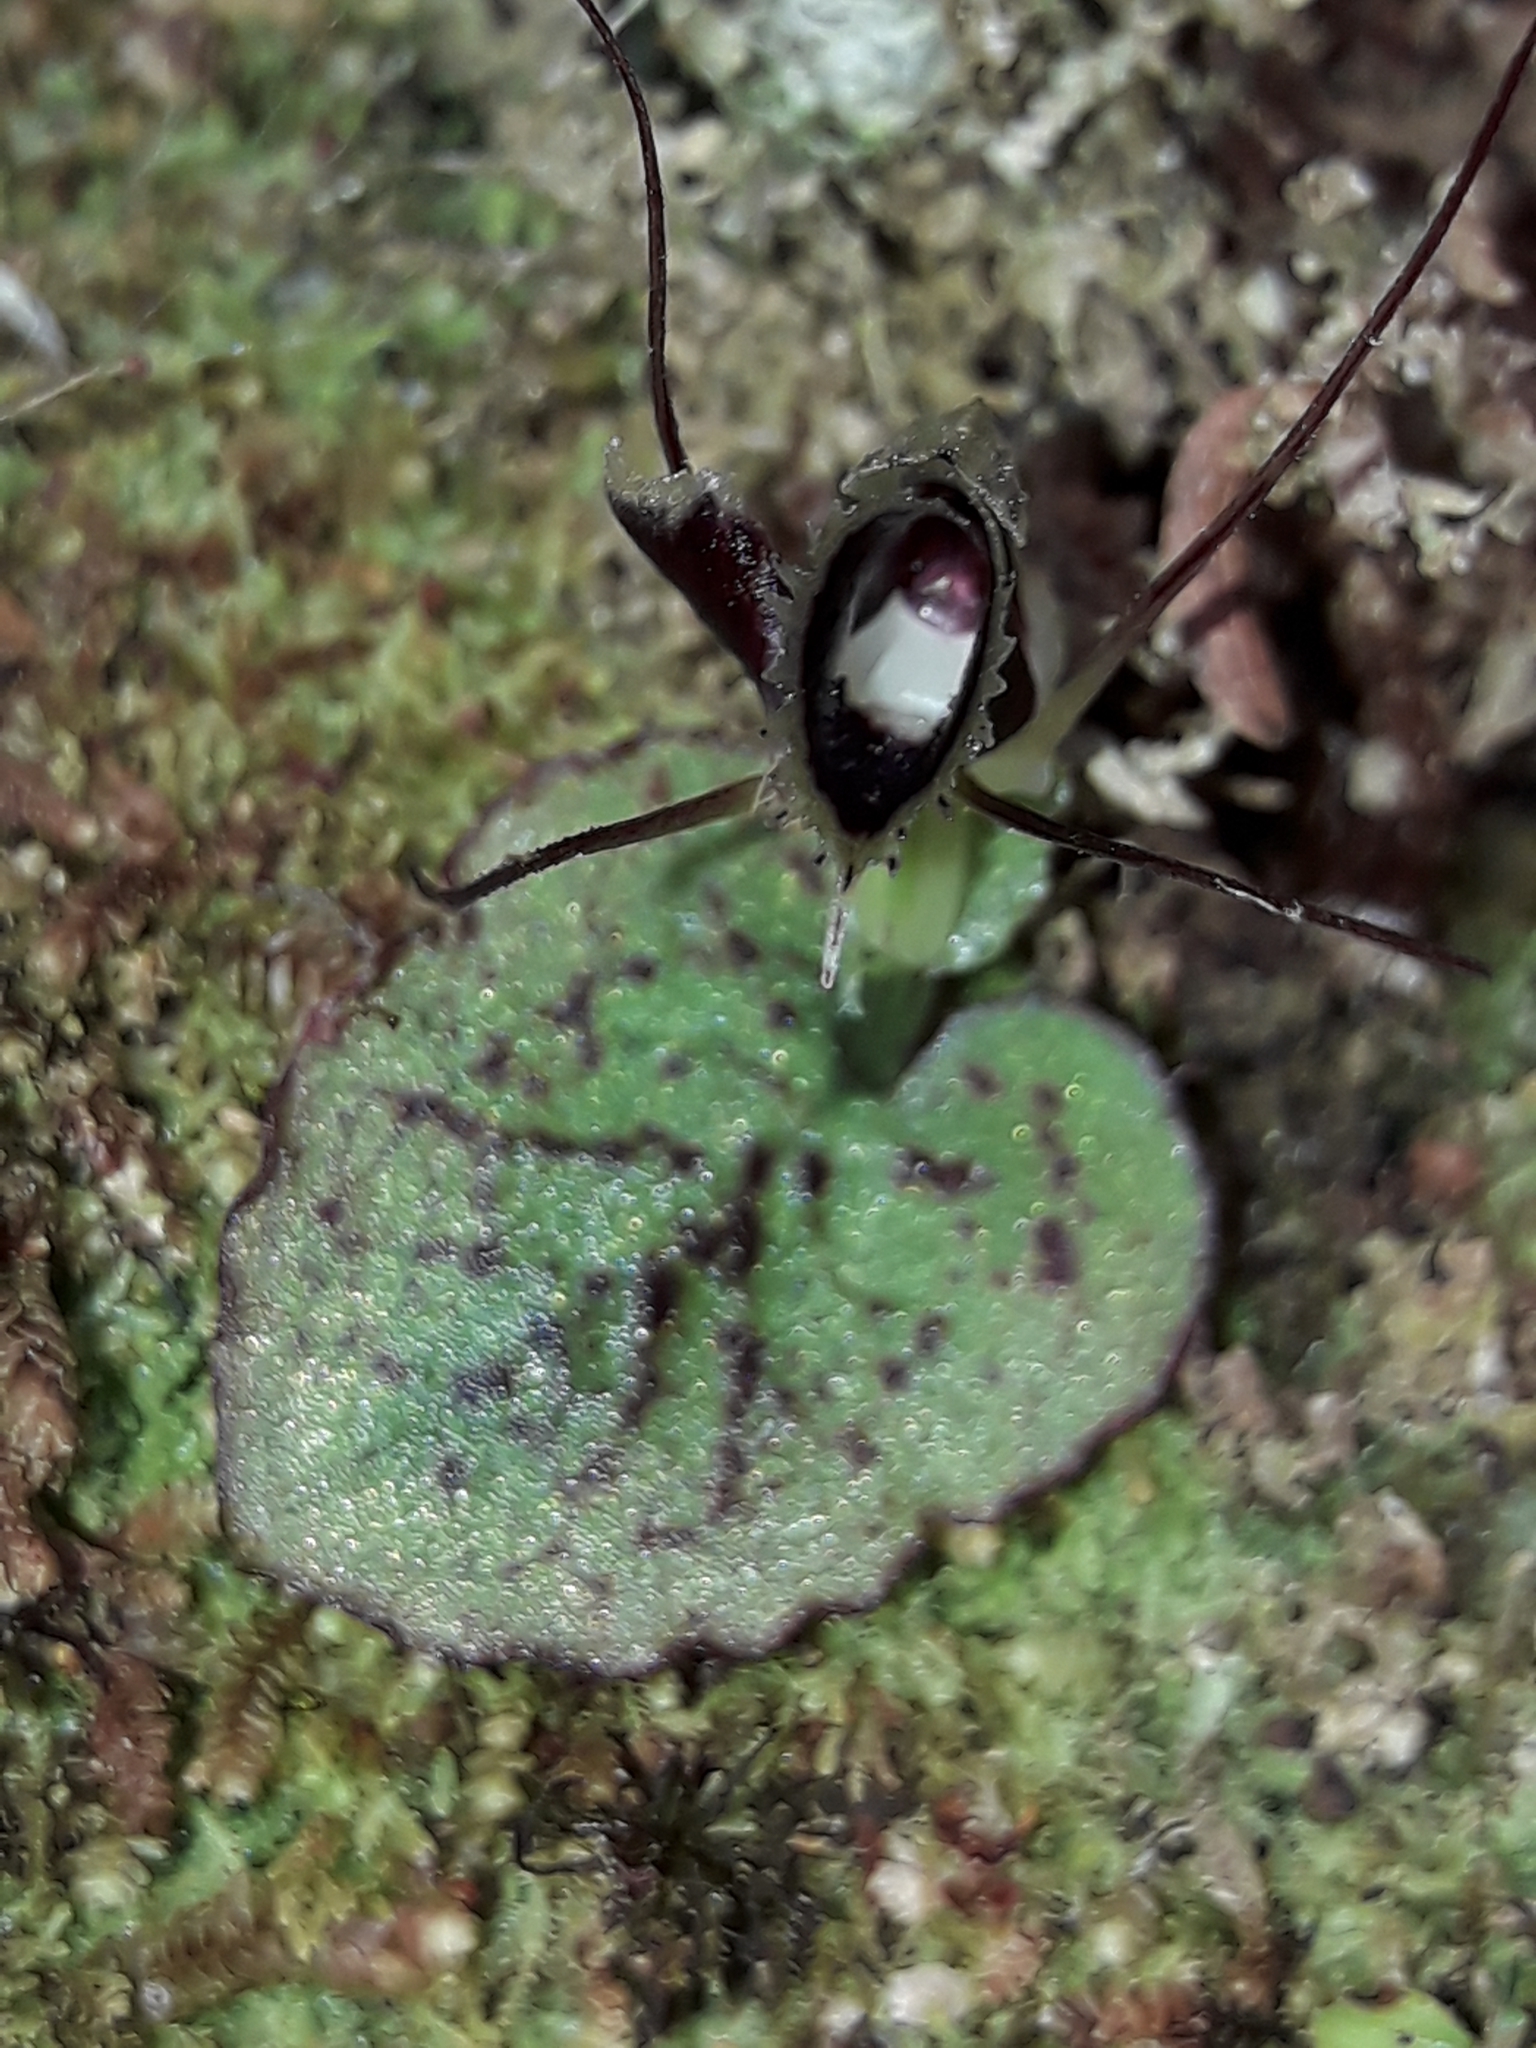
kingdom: Plantae
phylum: Tracheophyta
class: Liliopsida
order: Asparagales
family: Orchidaceae
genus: Corybas
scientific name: Corybas oblongus
